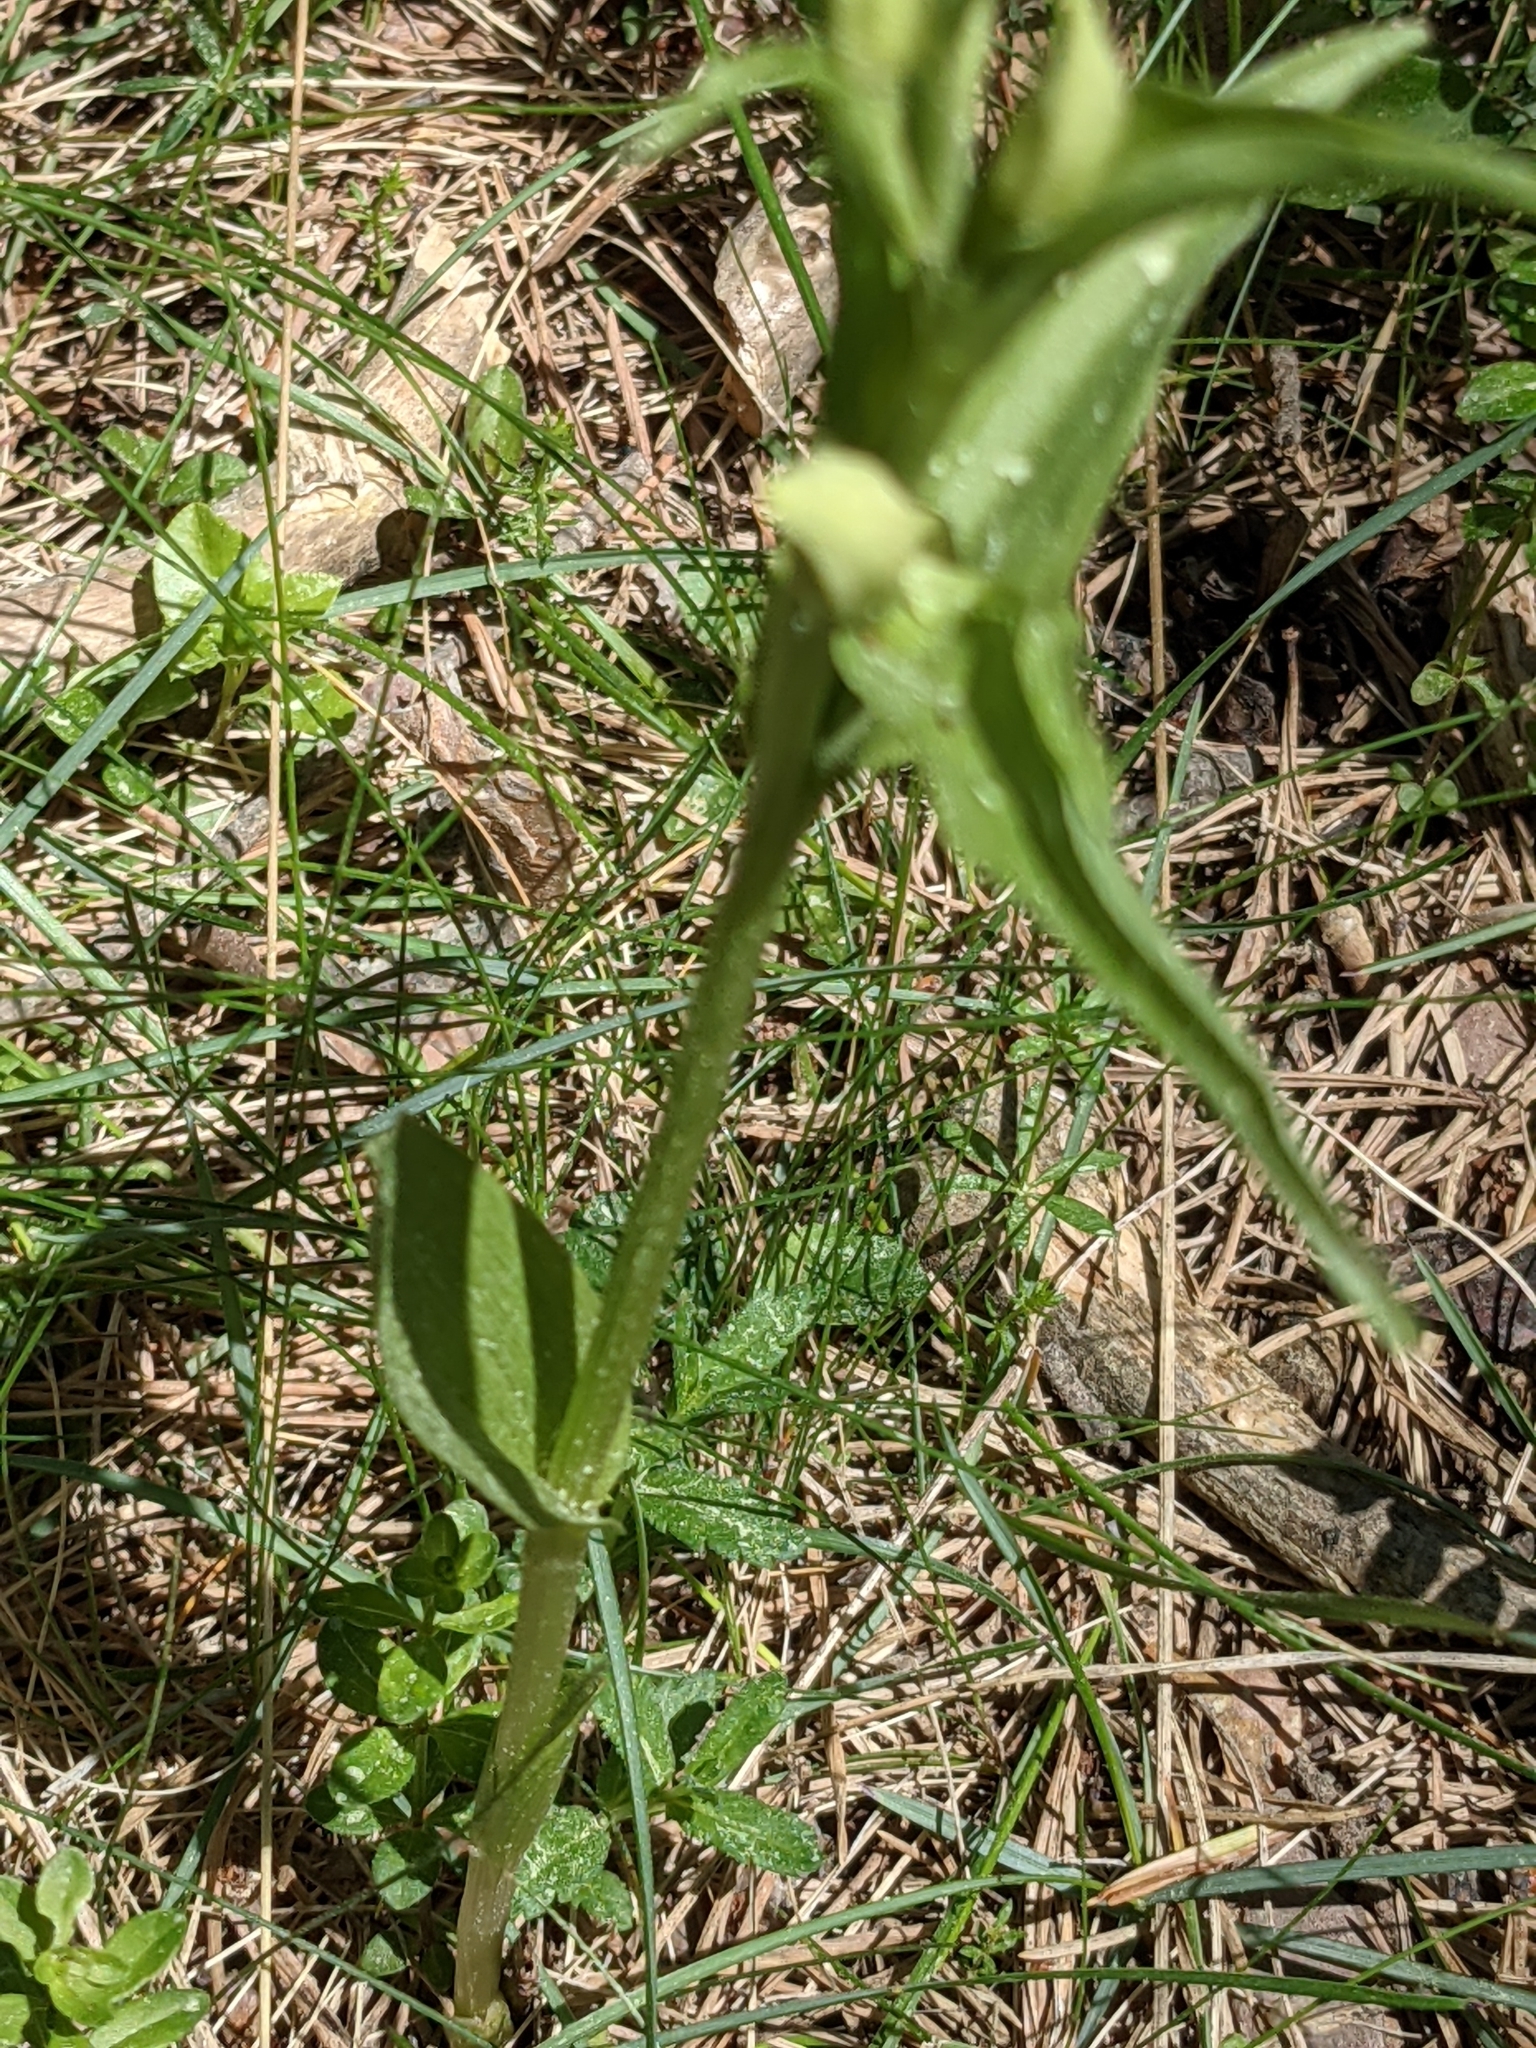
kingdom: Plantae
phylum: Tracheophyta
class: Liliopsida
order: Asparagales
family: Orchidaceae
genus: Cephalanthera
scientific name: Cephalanthera damasonium
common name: White helleborine
